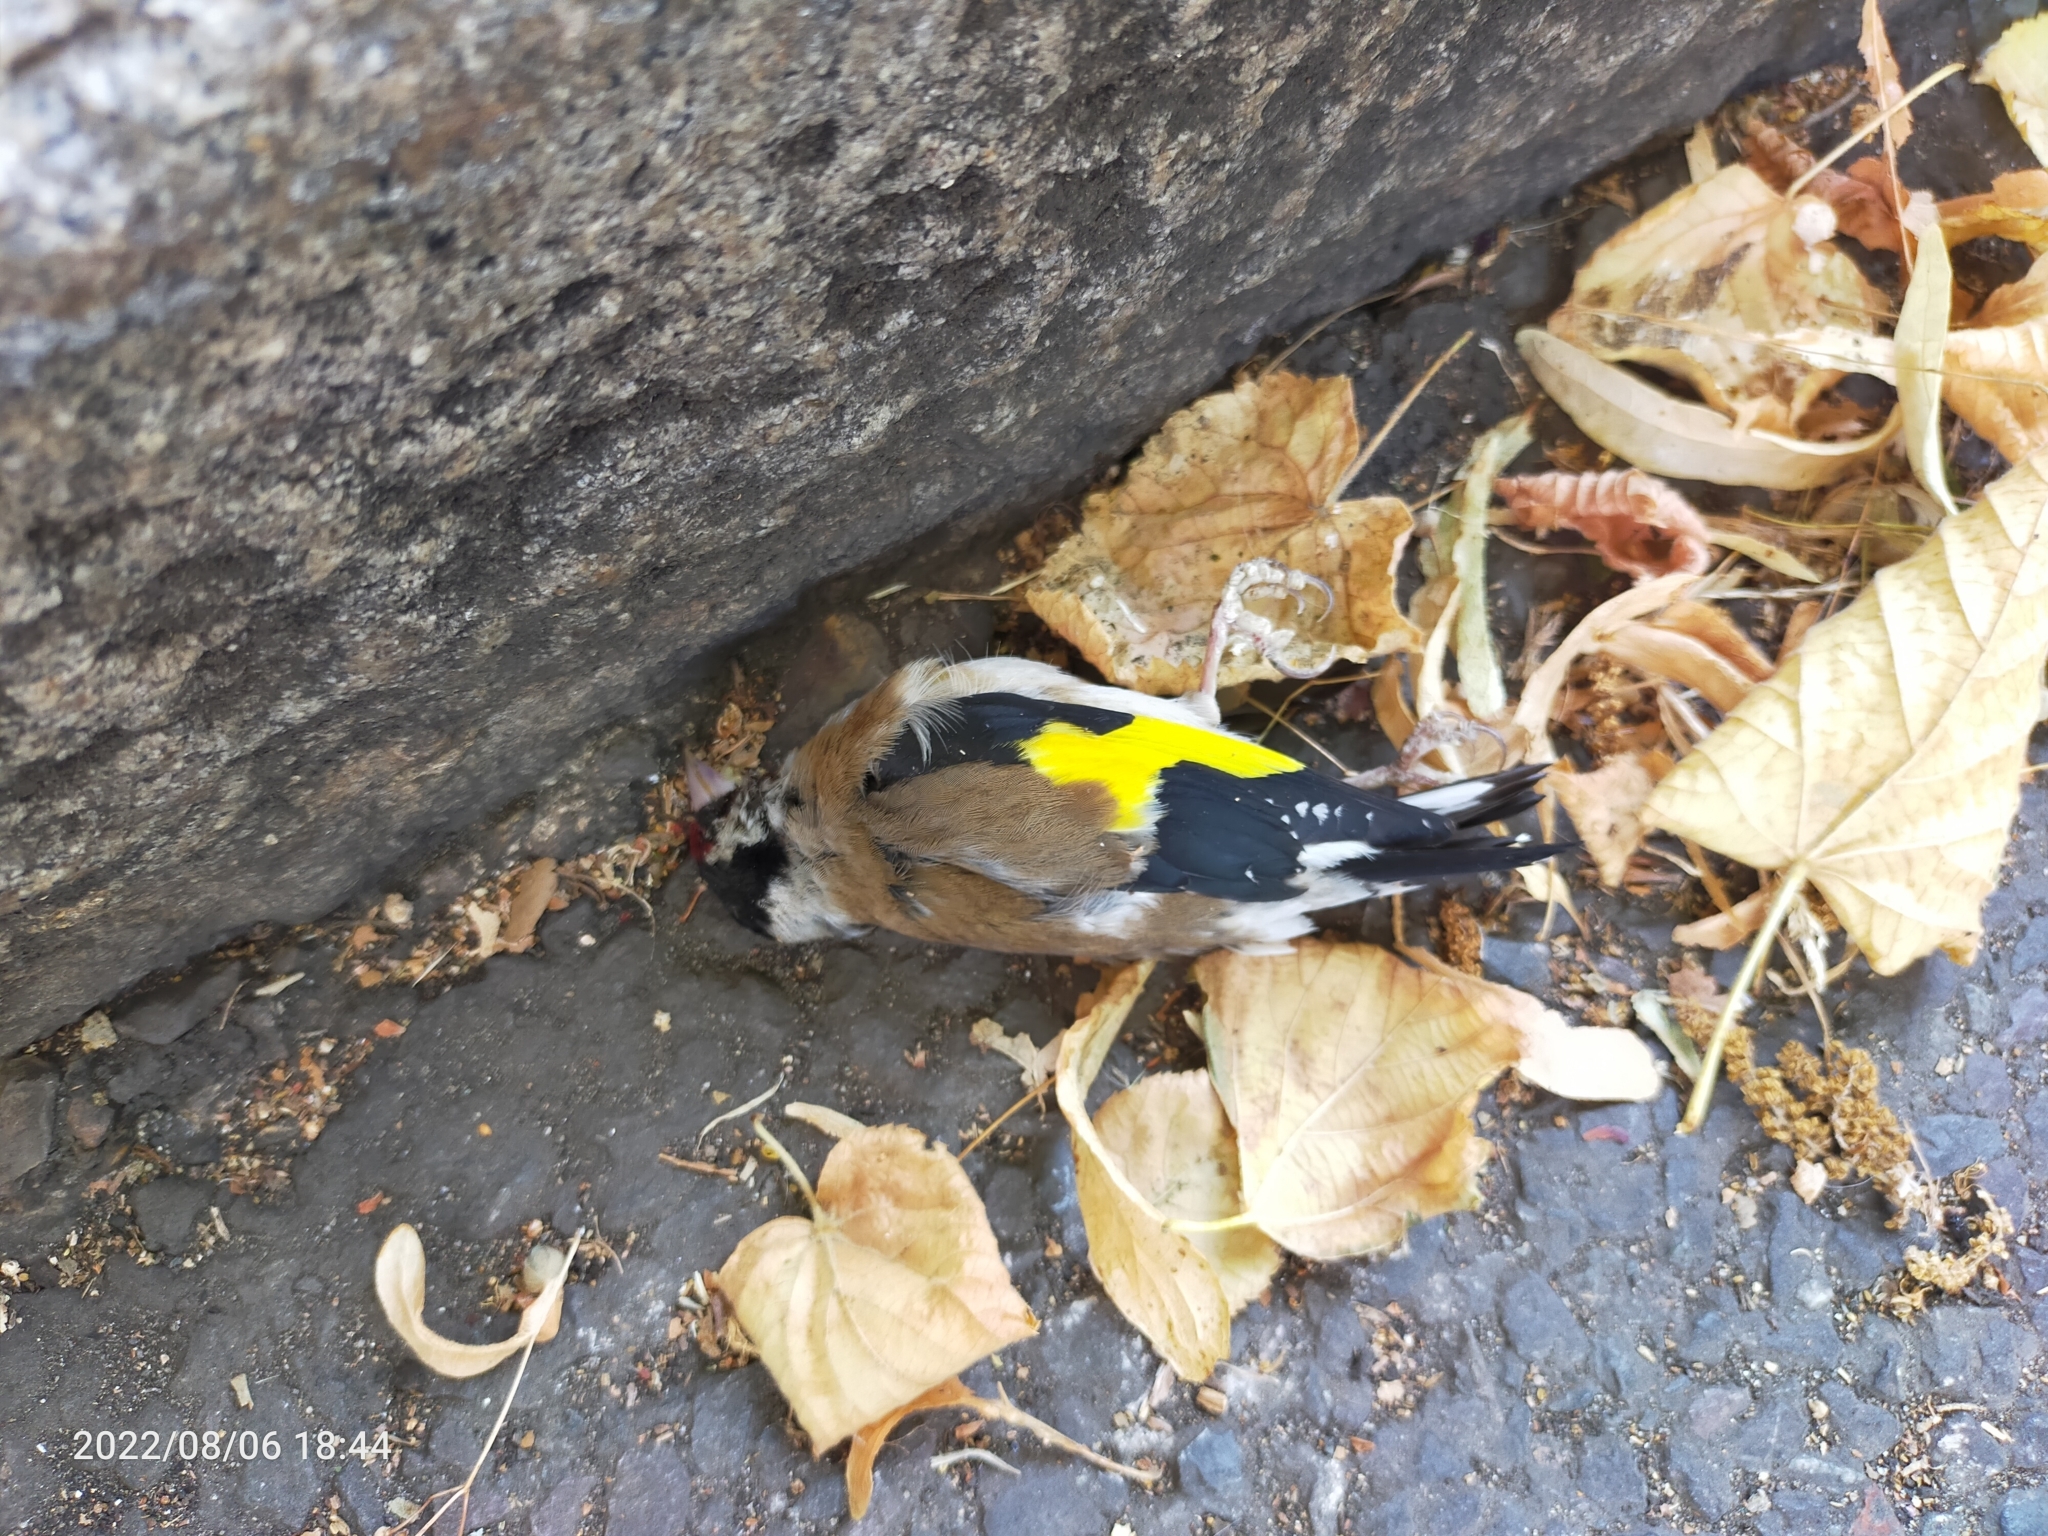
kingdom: Animalia
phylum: Chordata
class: Aves
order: Passeriformes
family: Fringillidae
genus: Carduelis
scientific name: Carduelis carduelis
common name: European goldfinch
